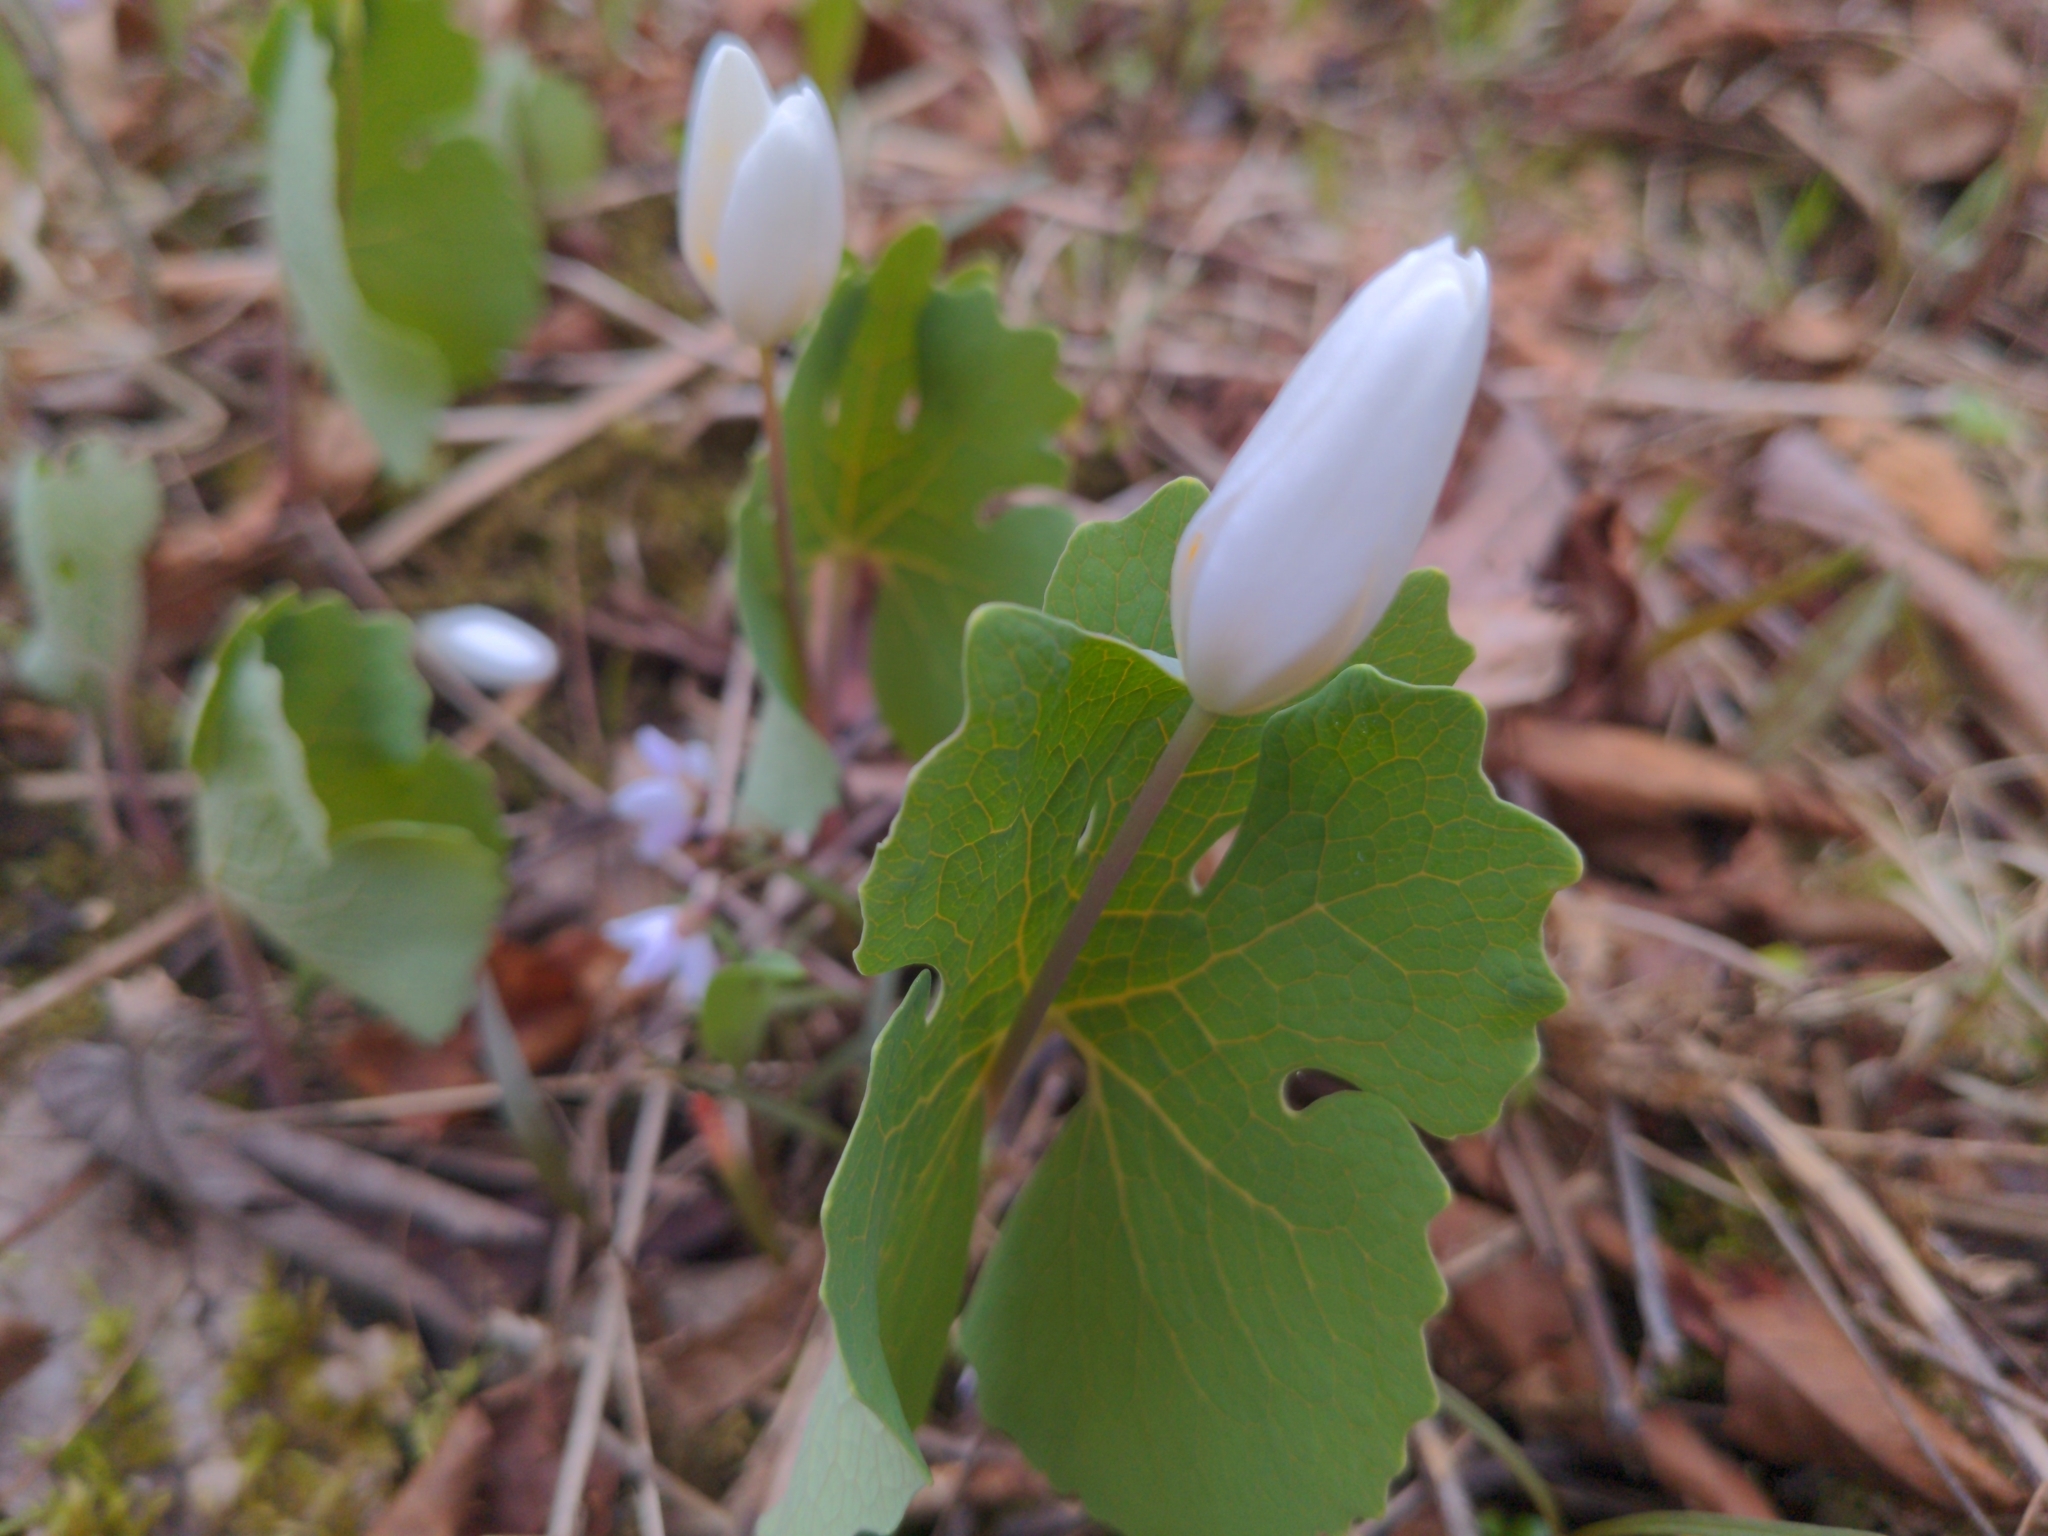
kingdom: Plantae
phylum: Tracheophyta
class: Magnoliopsida
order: Ranunculales
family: Papaveraceae
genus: Sanguinaria
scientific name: Sanguinaria canadensis
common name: Bloodroot
